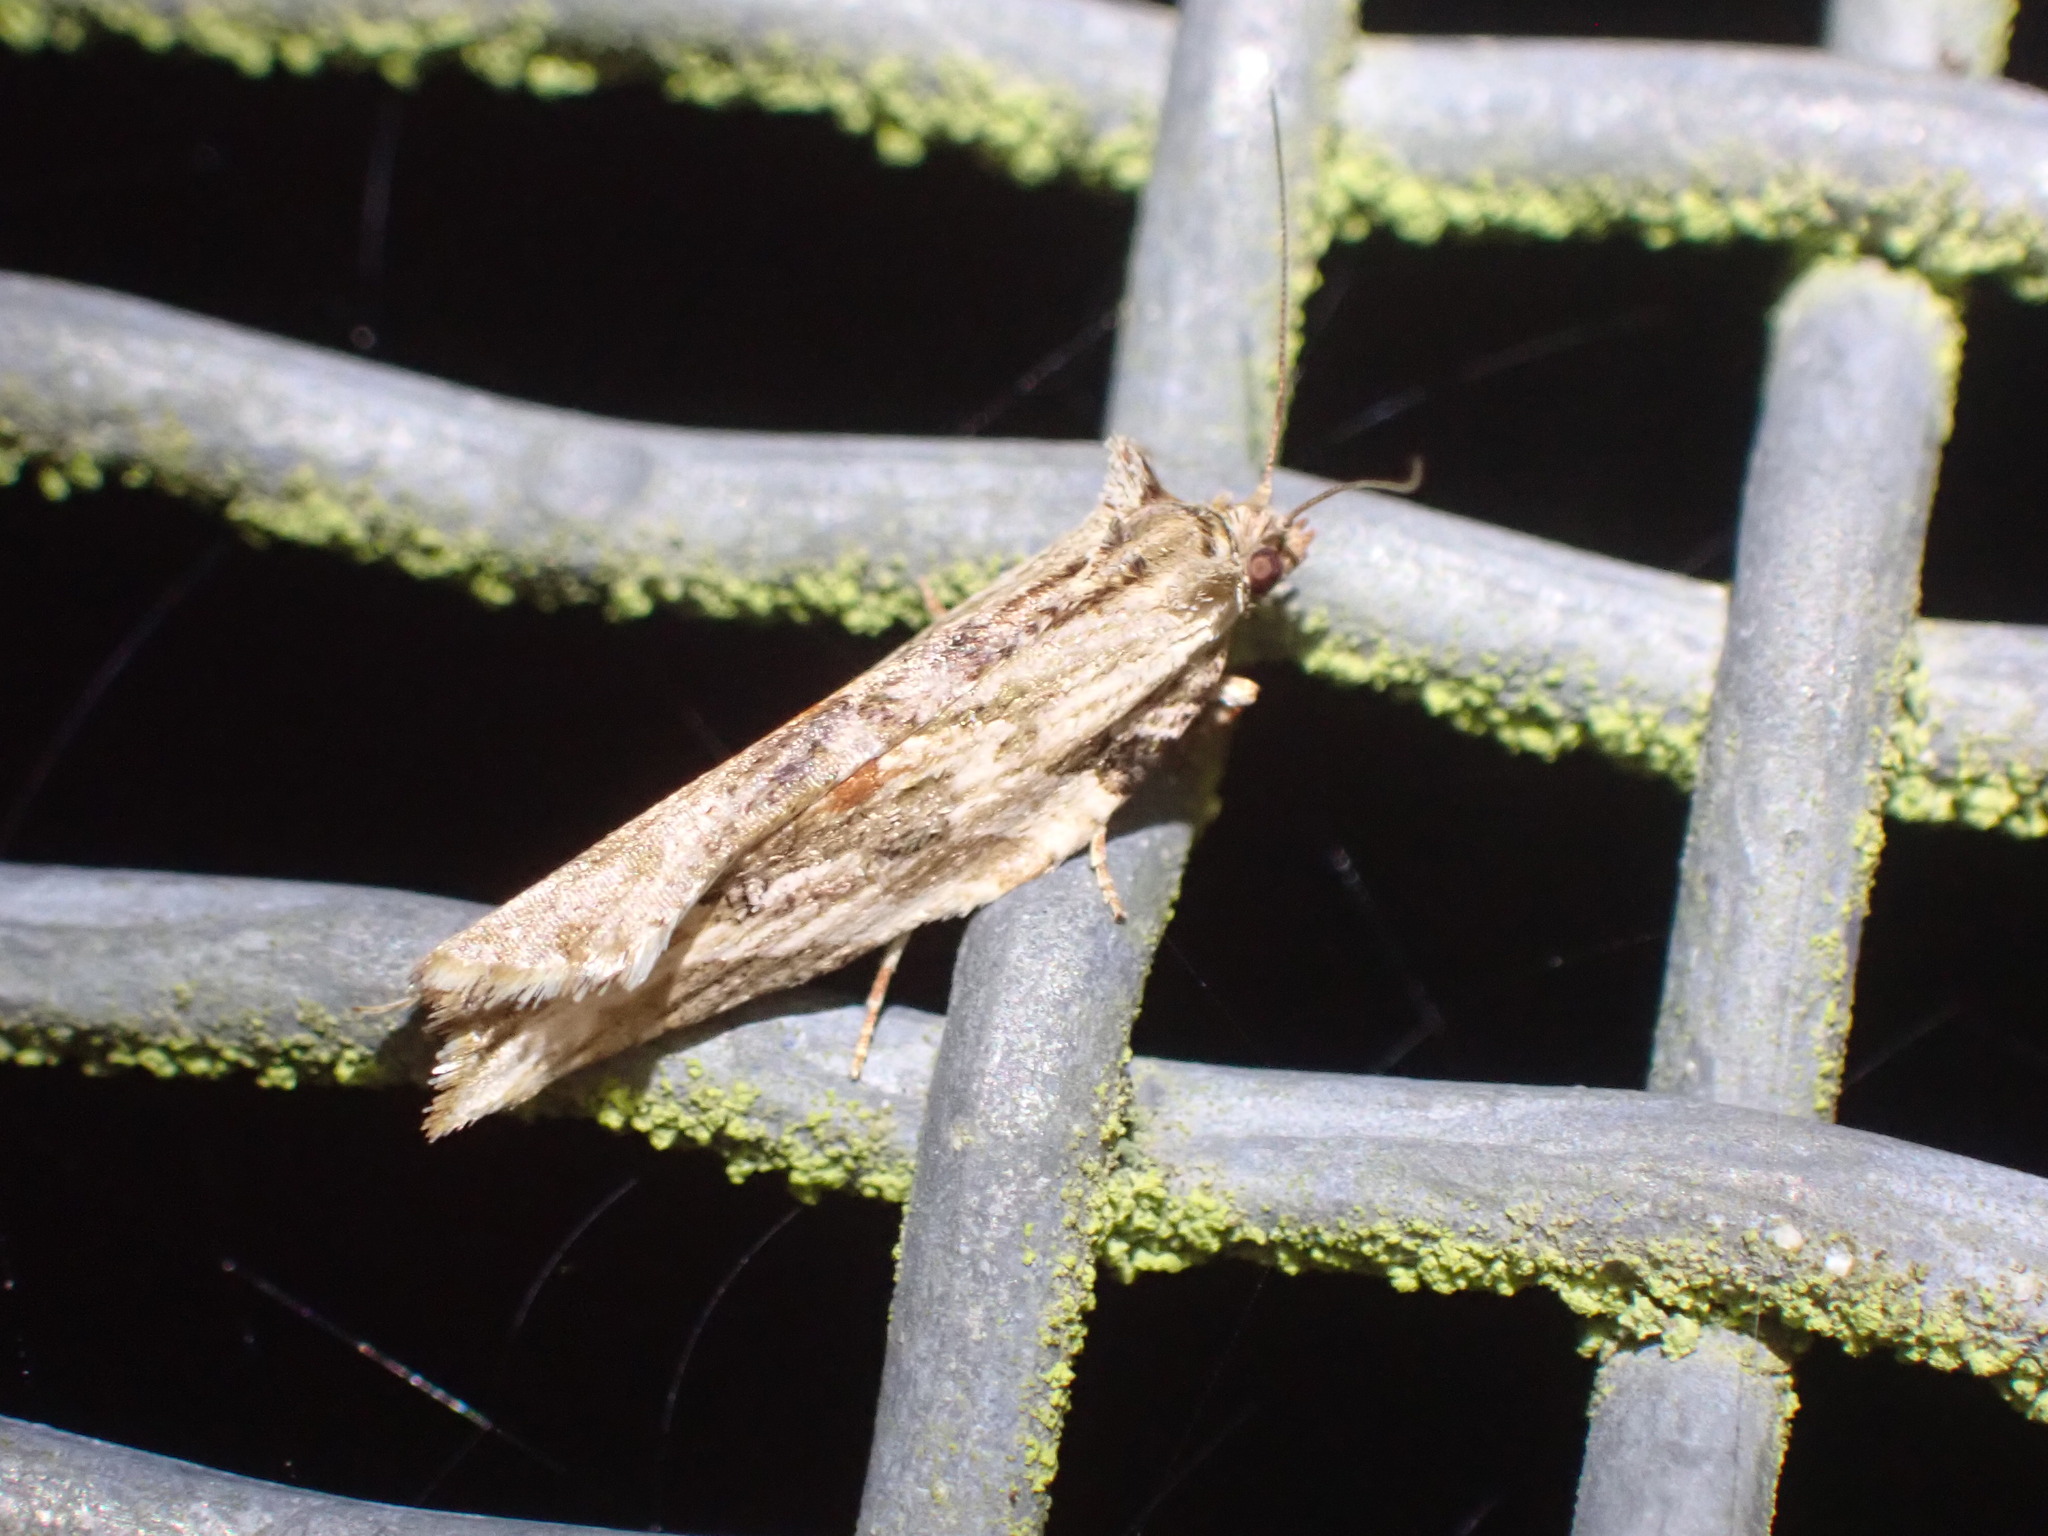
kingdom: Animalia
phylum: Arthropoda
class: Insecta
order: Lepidoptera
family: Tortricidae
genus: Epalxiphora
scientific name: Epalxiphora axenana
